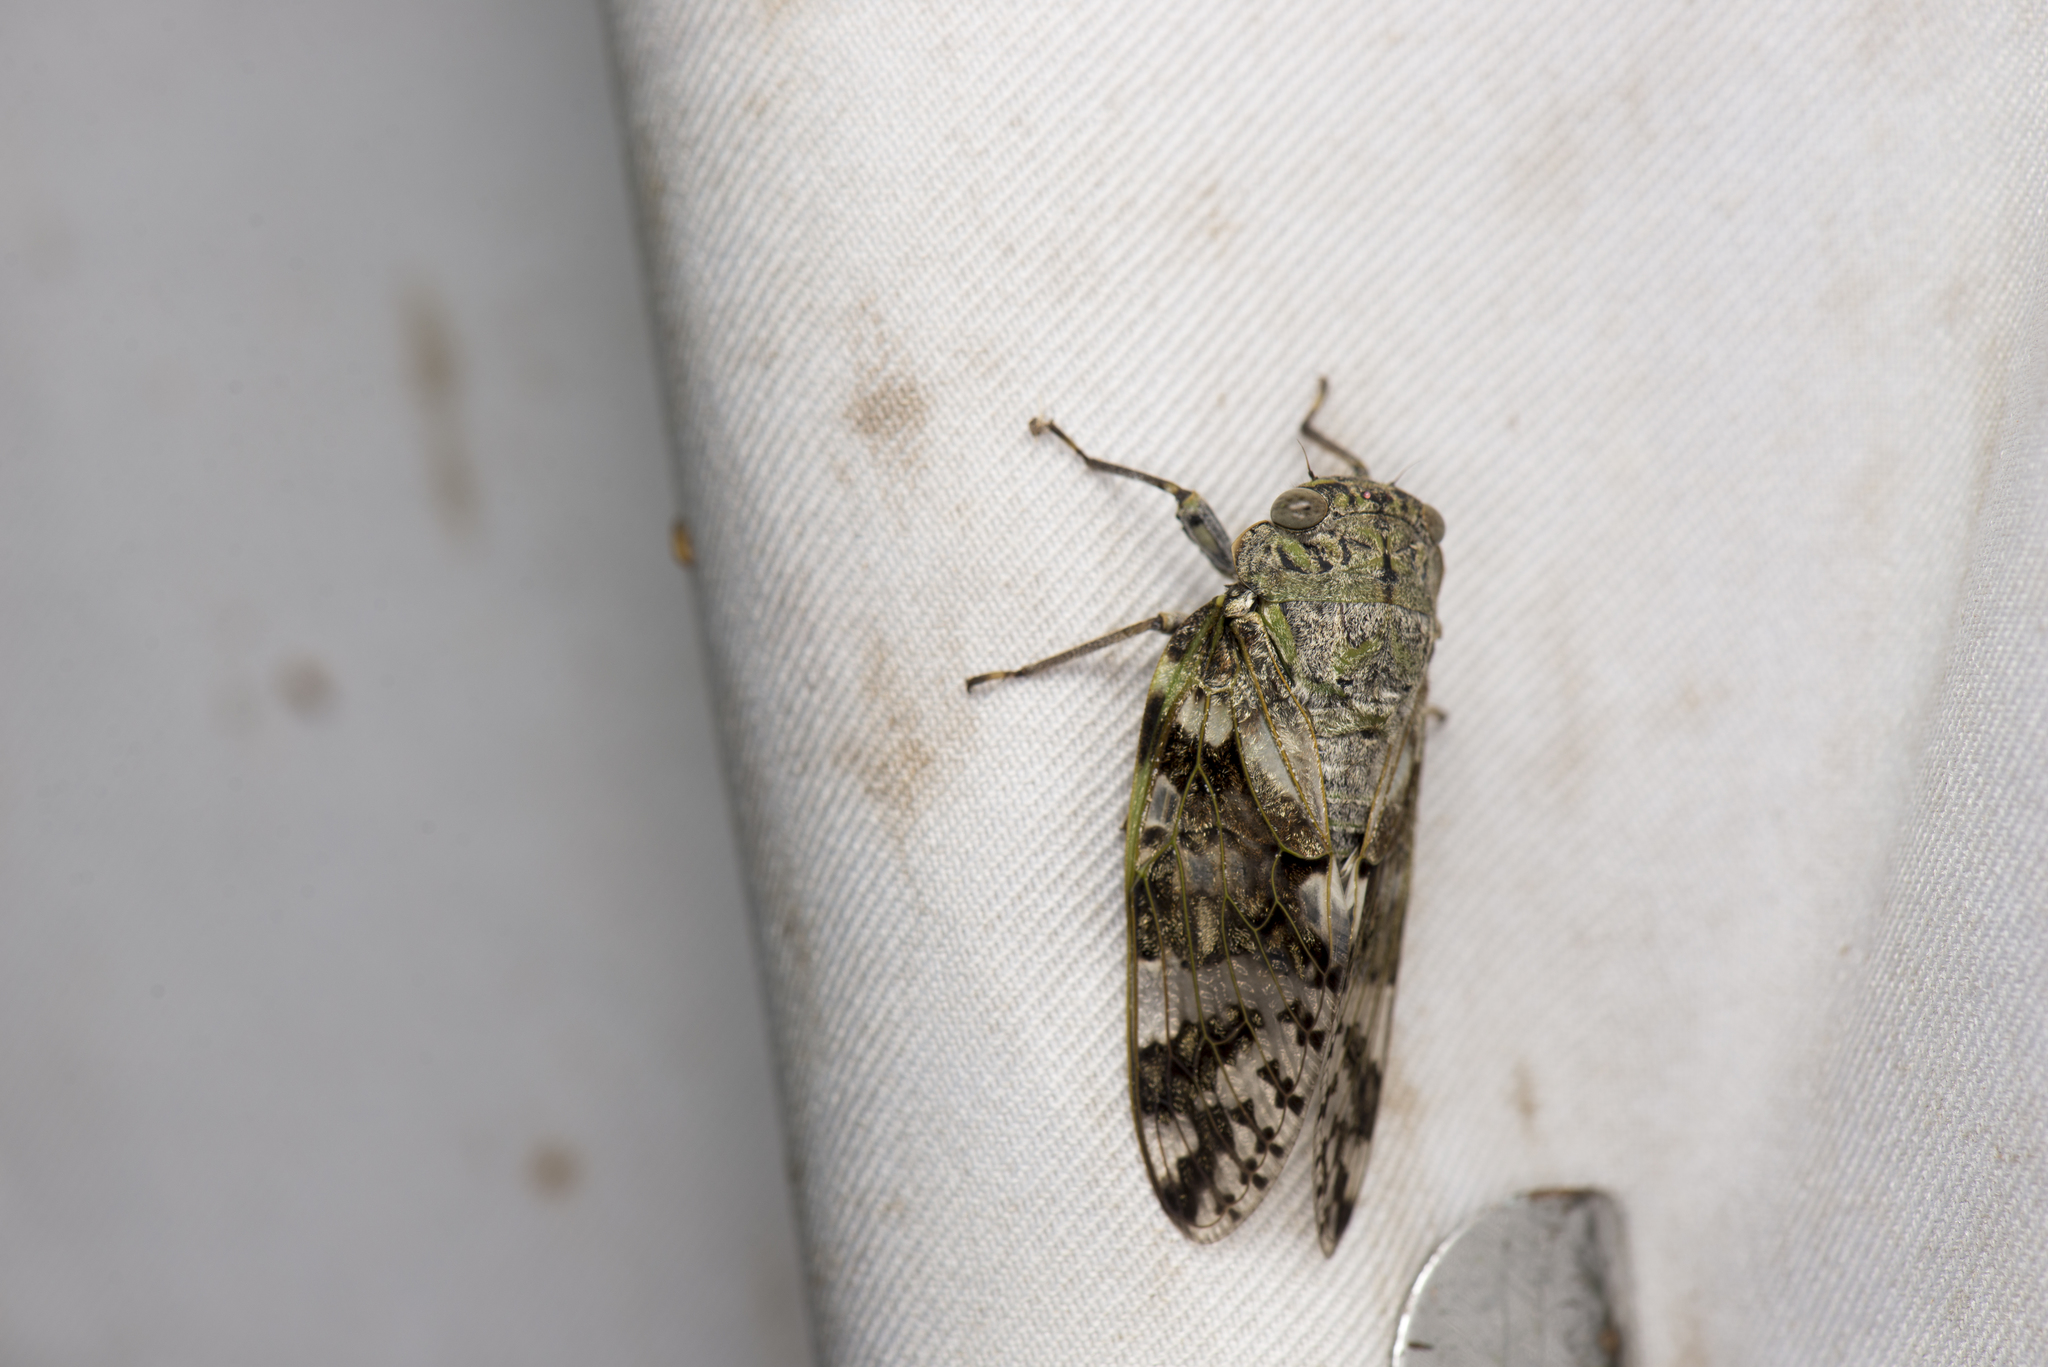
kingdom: Animalia
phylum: Arthropoda
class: Insecta
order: Hemiptera
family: Cicadidae
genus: Platypleura
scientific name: Platypleura takasagona
